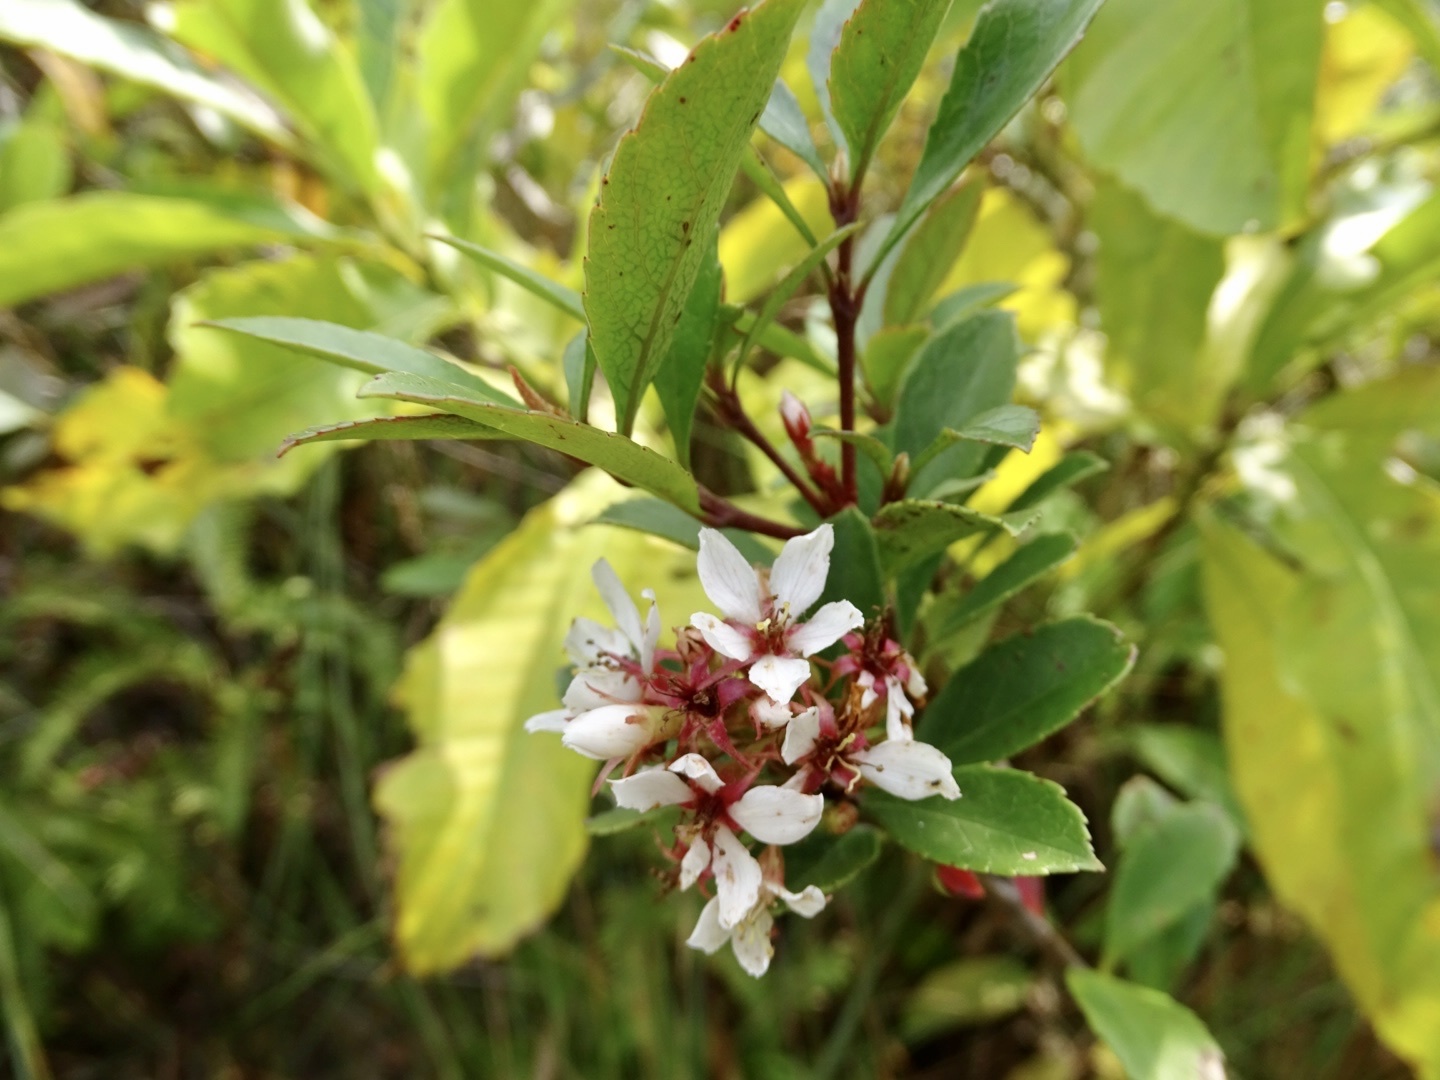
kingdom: Plantae
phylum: Tracheophyta
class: Magnoliopsida
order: Rosales
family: Rosaceae
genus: Rhaphiolepis
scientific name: Rhaphiolepis indica
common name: India-hawthorn
